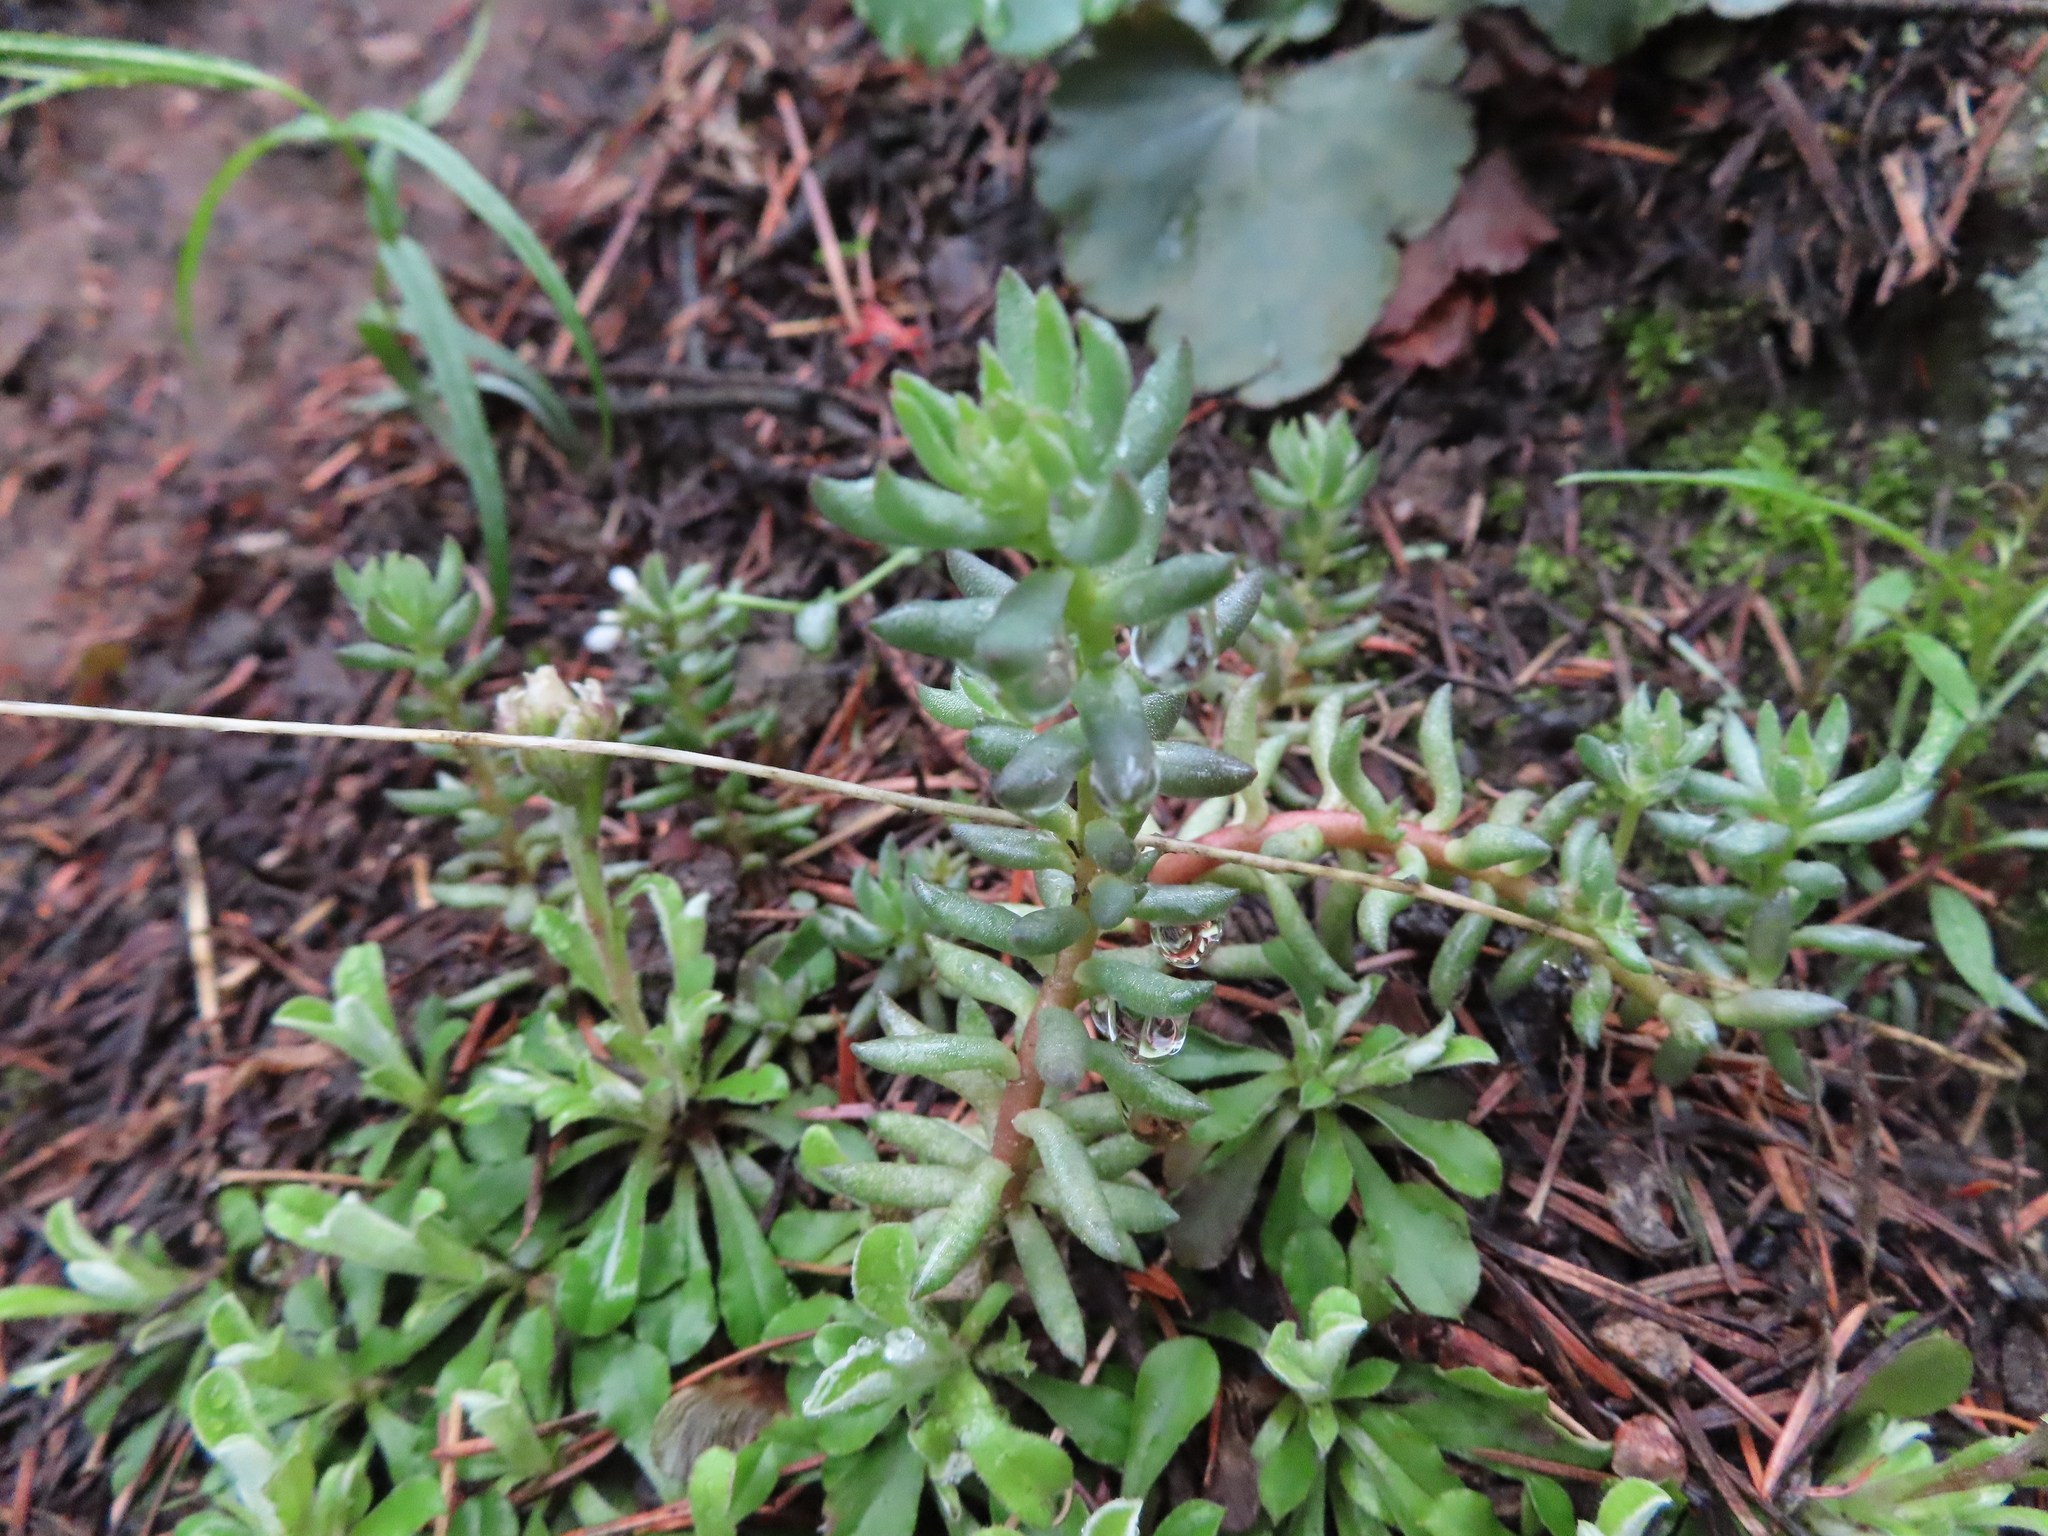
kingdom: Plantae
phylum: Tracheophyta
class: Magnoliopsida
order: Saxifragales
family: Crassulaceae
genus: Sedum
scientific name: Sedum lanceolatum
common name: Common stonecrop
